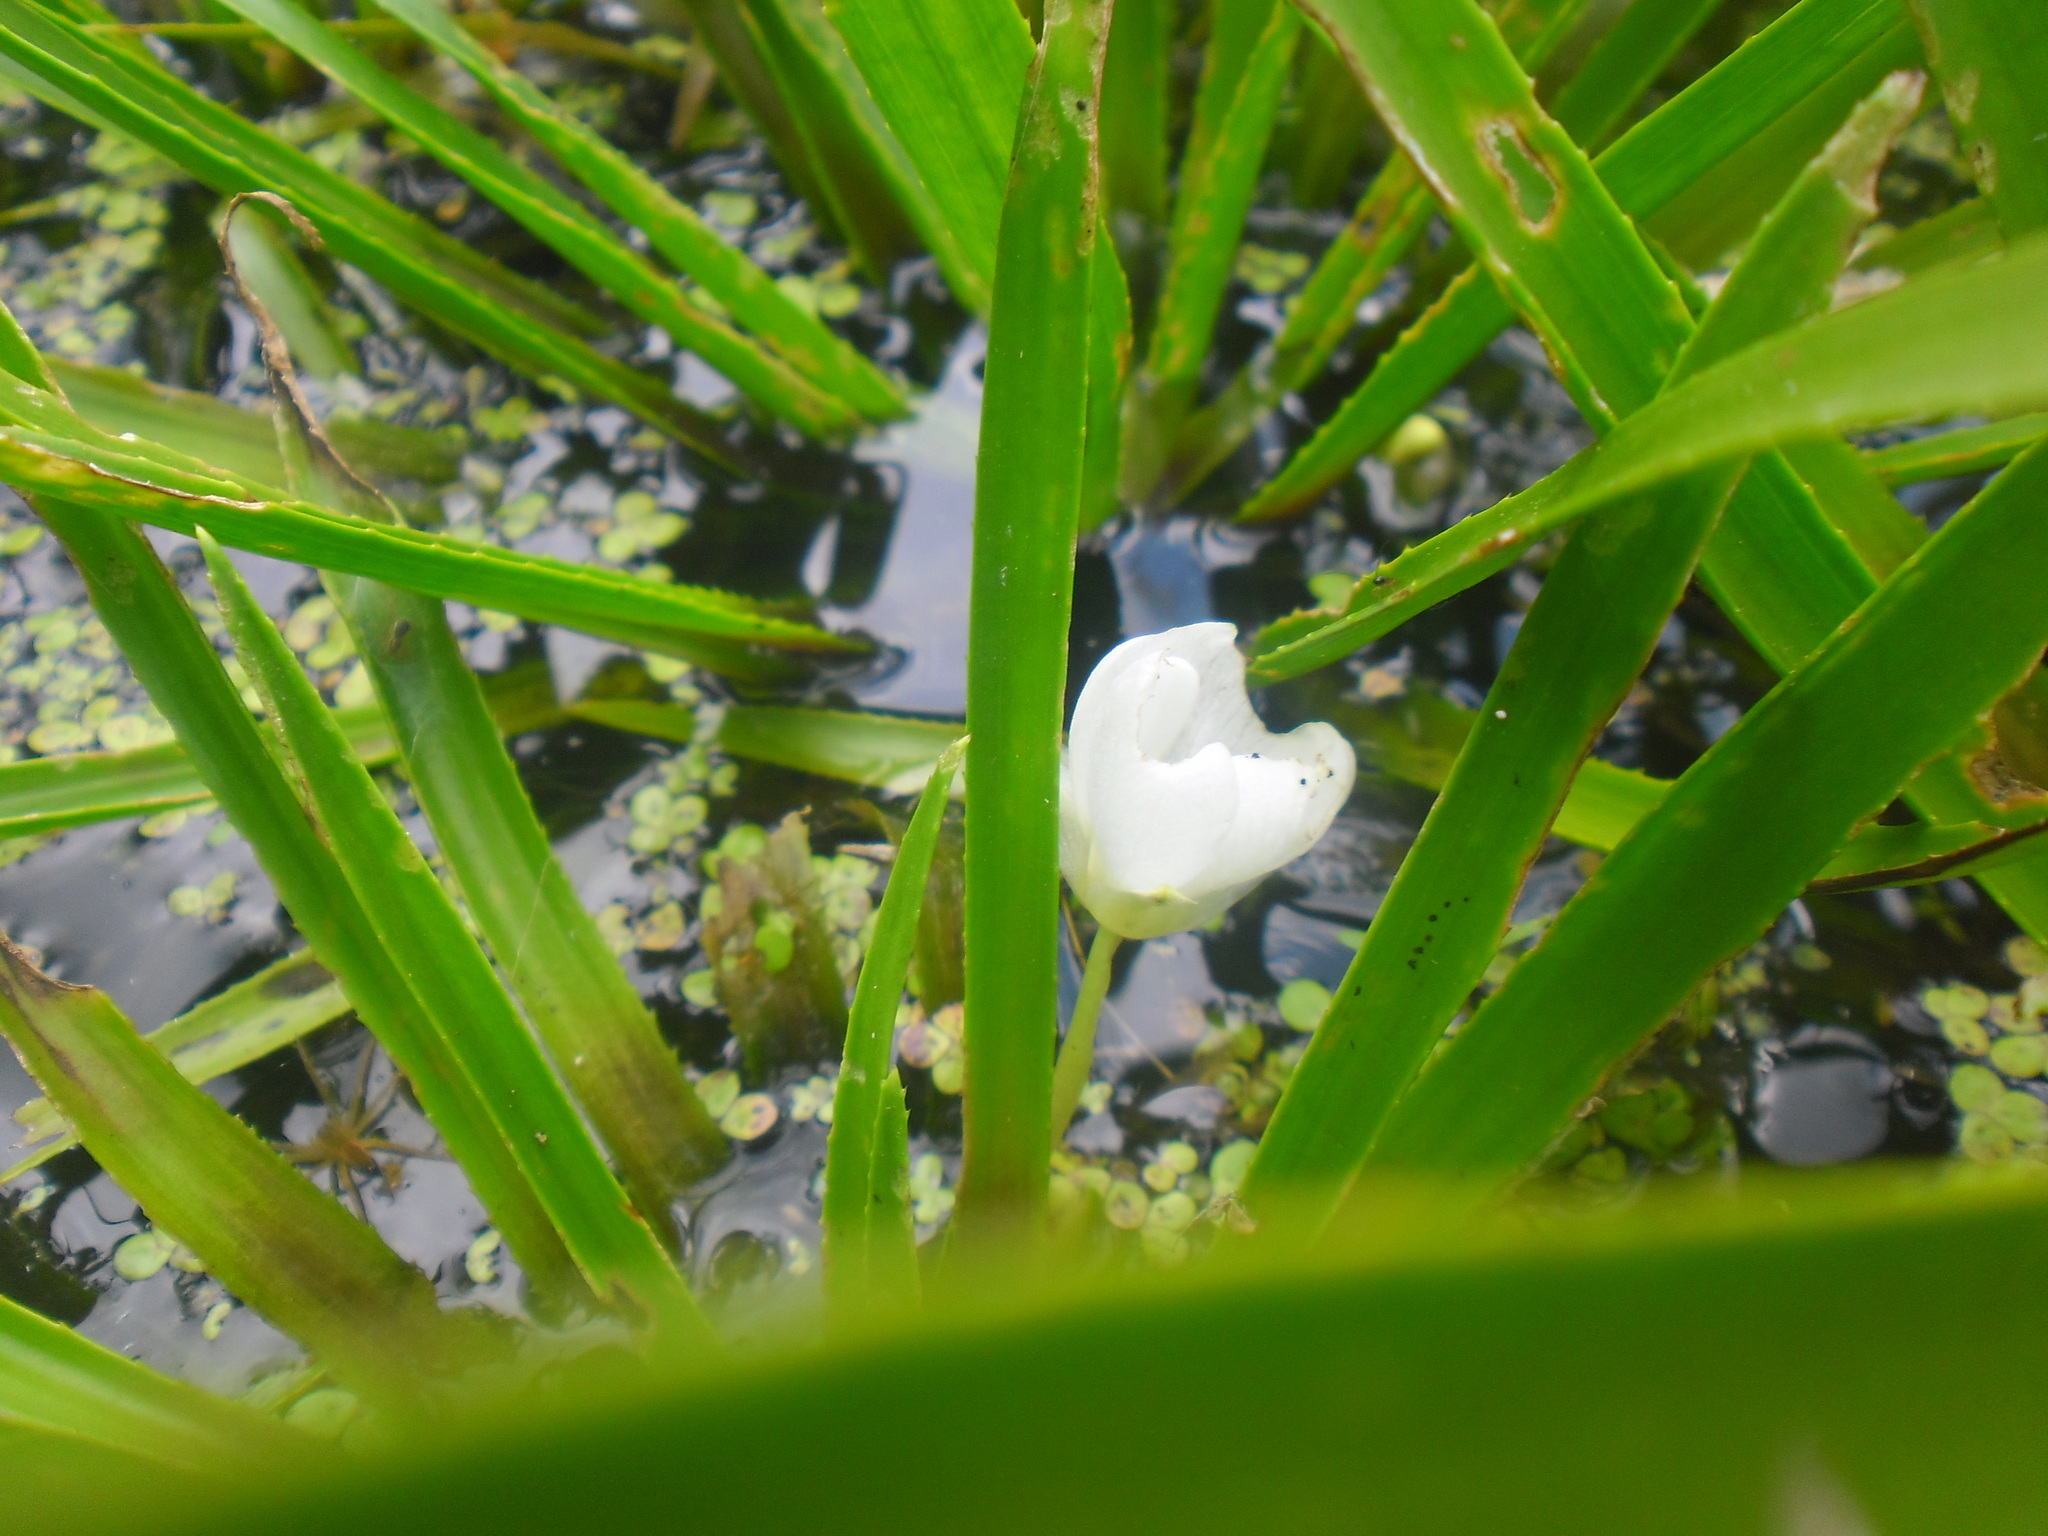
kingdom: Plantae
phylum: Tracheophyta
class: Liliopsida
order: Alismatales
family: Hydrocharitaceae
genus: Stratiotes
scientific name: Stratiotes aloides
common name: Water-soldier
